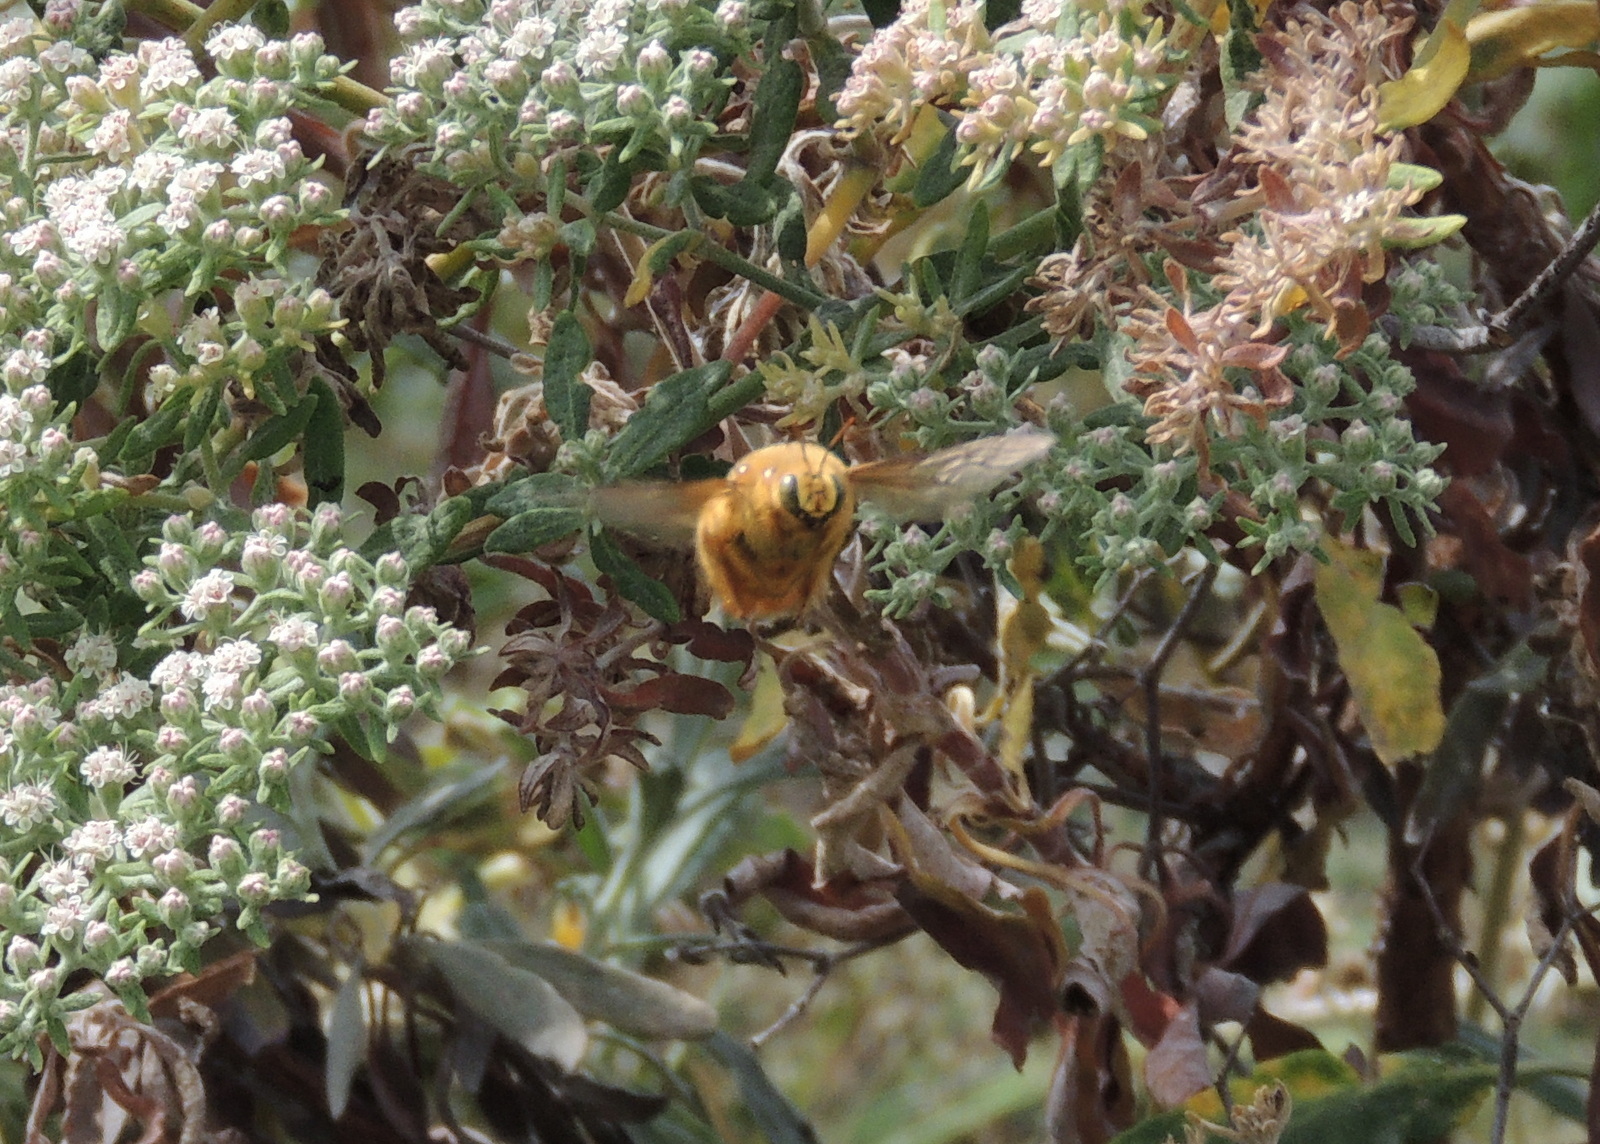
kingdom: Animalia
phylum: Arthropoda
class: Insecta
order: Hymenoptera
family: Apidae
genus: Xylocopa
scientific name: Xylocopa sonorina
